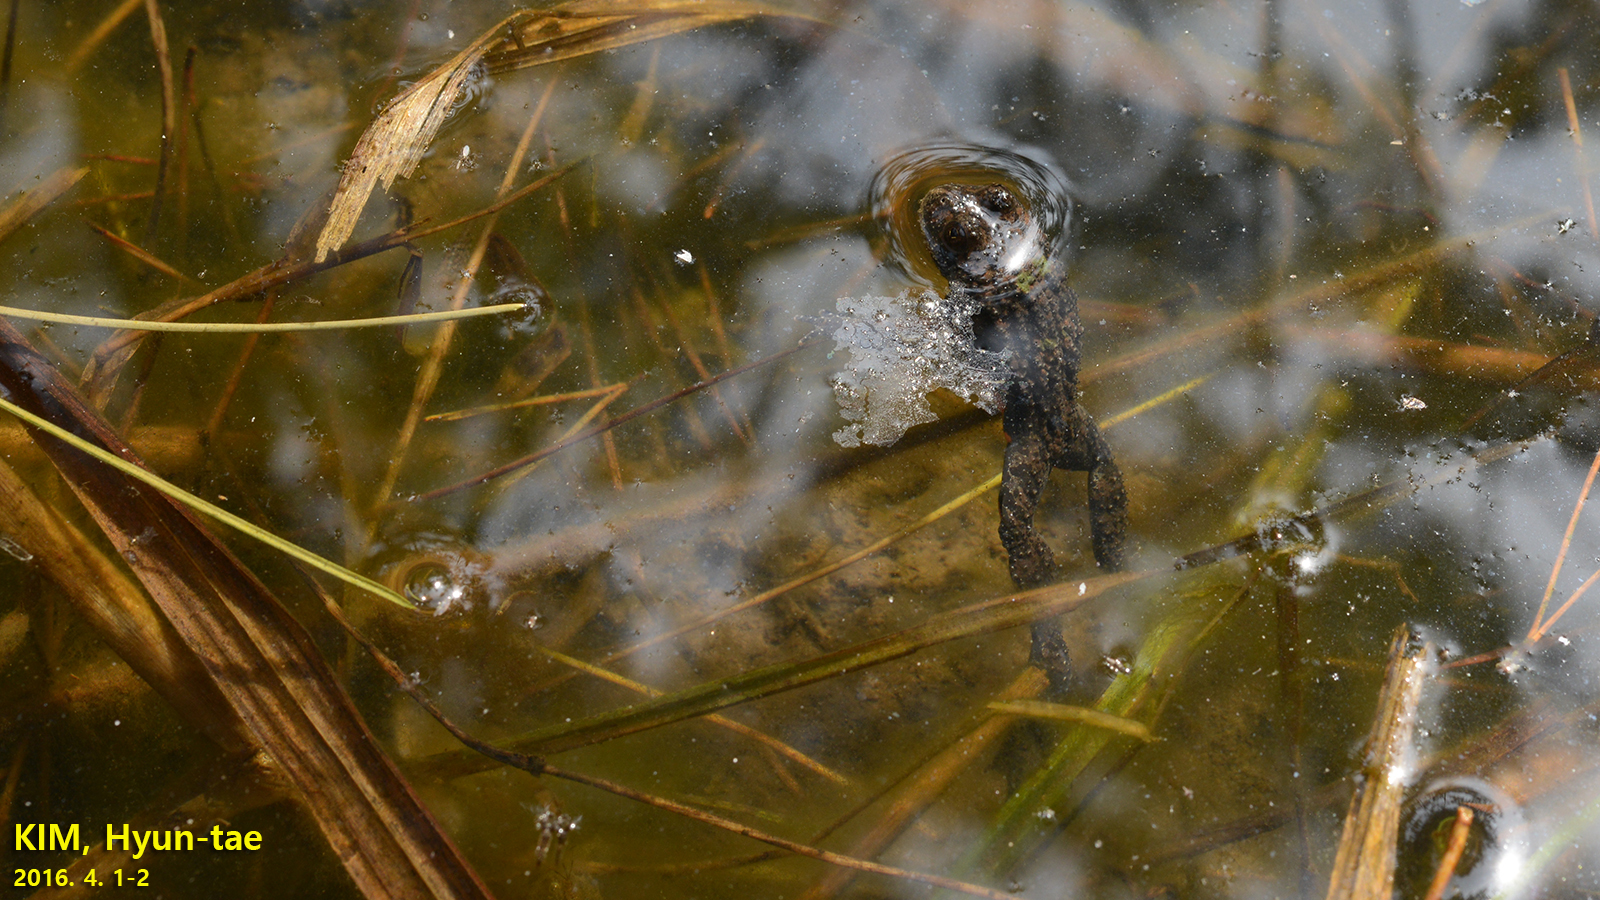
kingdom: Animalia
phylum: Chordata
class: Amphibia
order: Anura
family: Bombinatoridae
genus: Bombina
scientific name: Bombina orientalis
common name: Oriental firebelly toad
